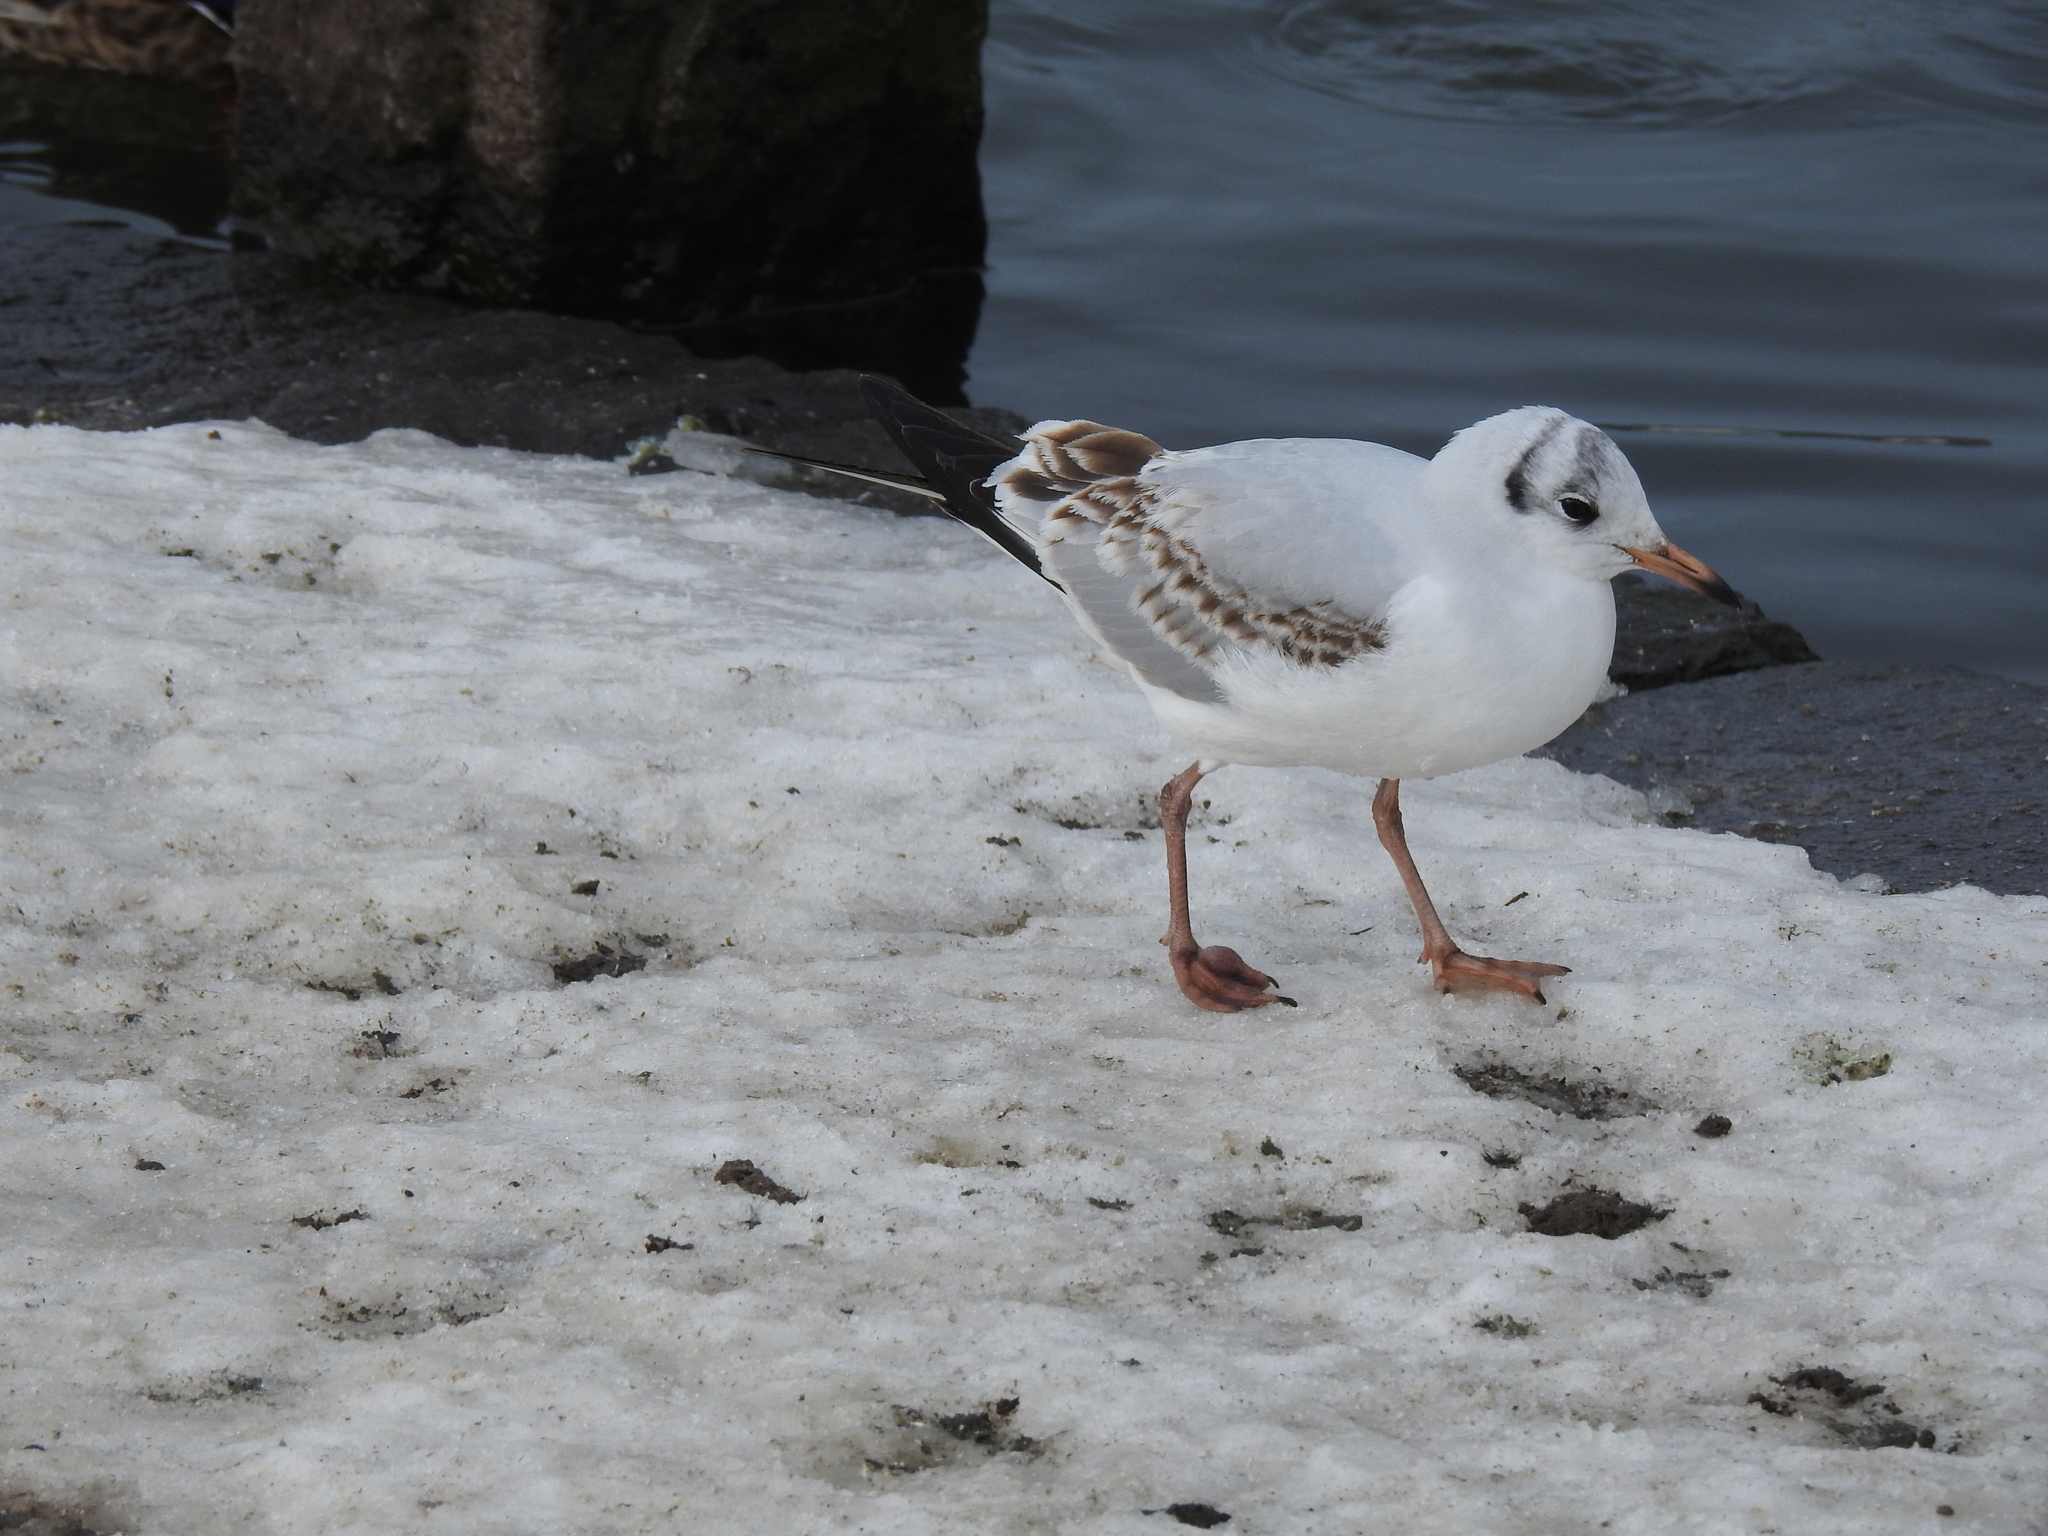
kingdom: Animalia
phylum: Chordata
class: Aves
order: Charadriiformes
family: Laridae
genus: Chroicocephalus
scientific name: Chroicocephalus ridibundus
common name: Black-headed gull
